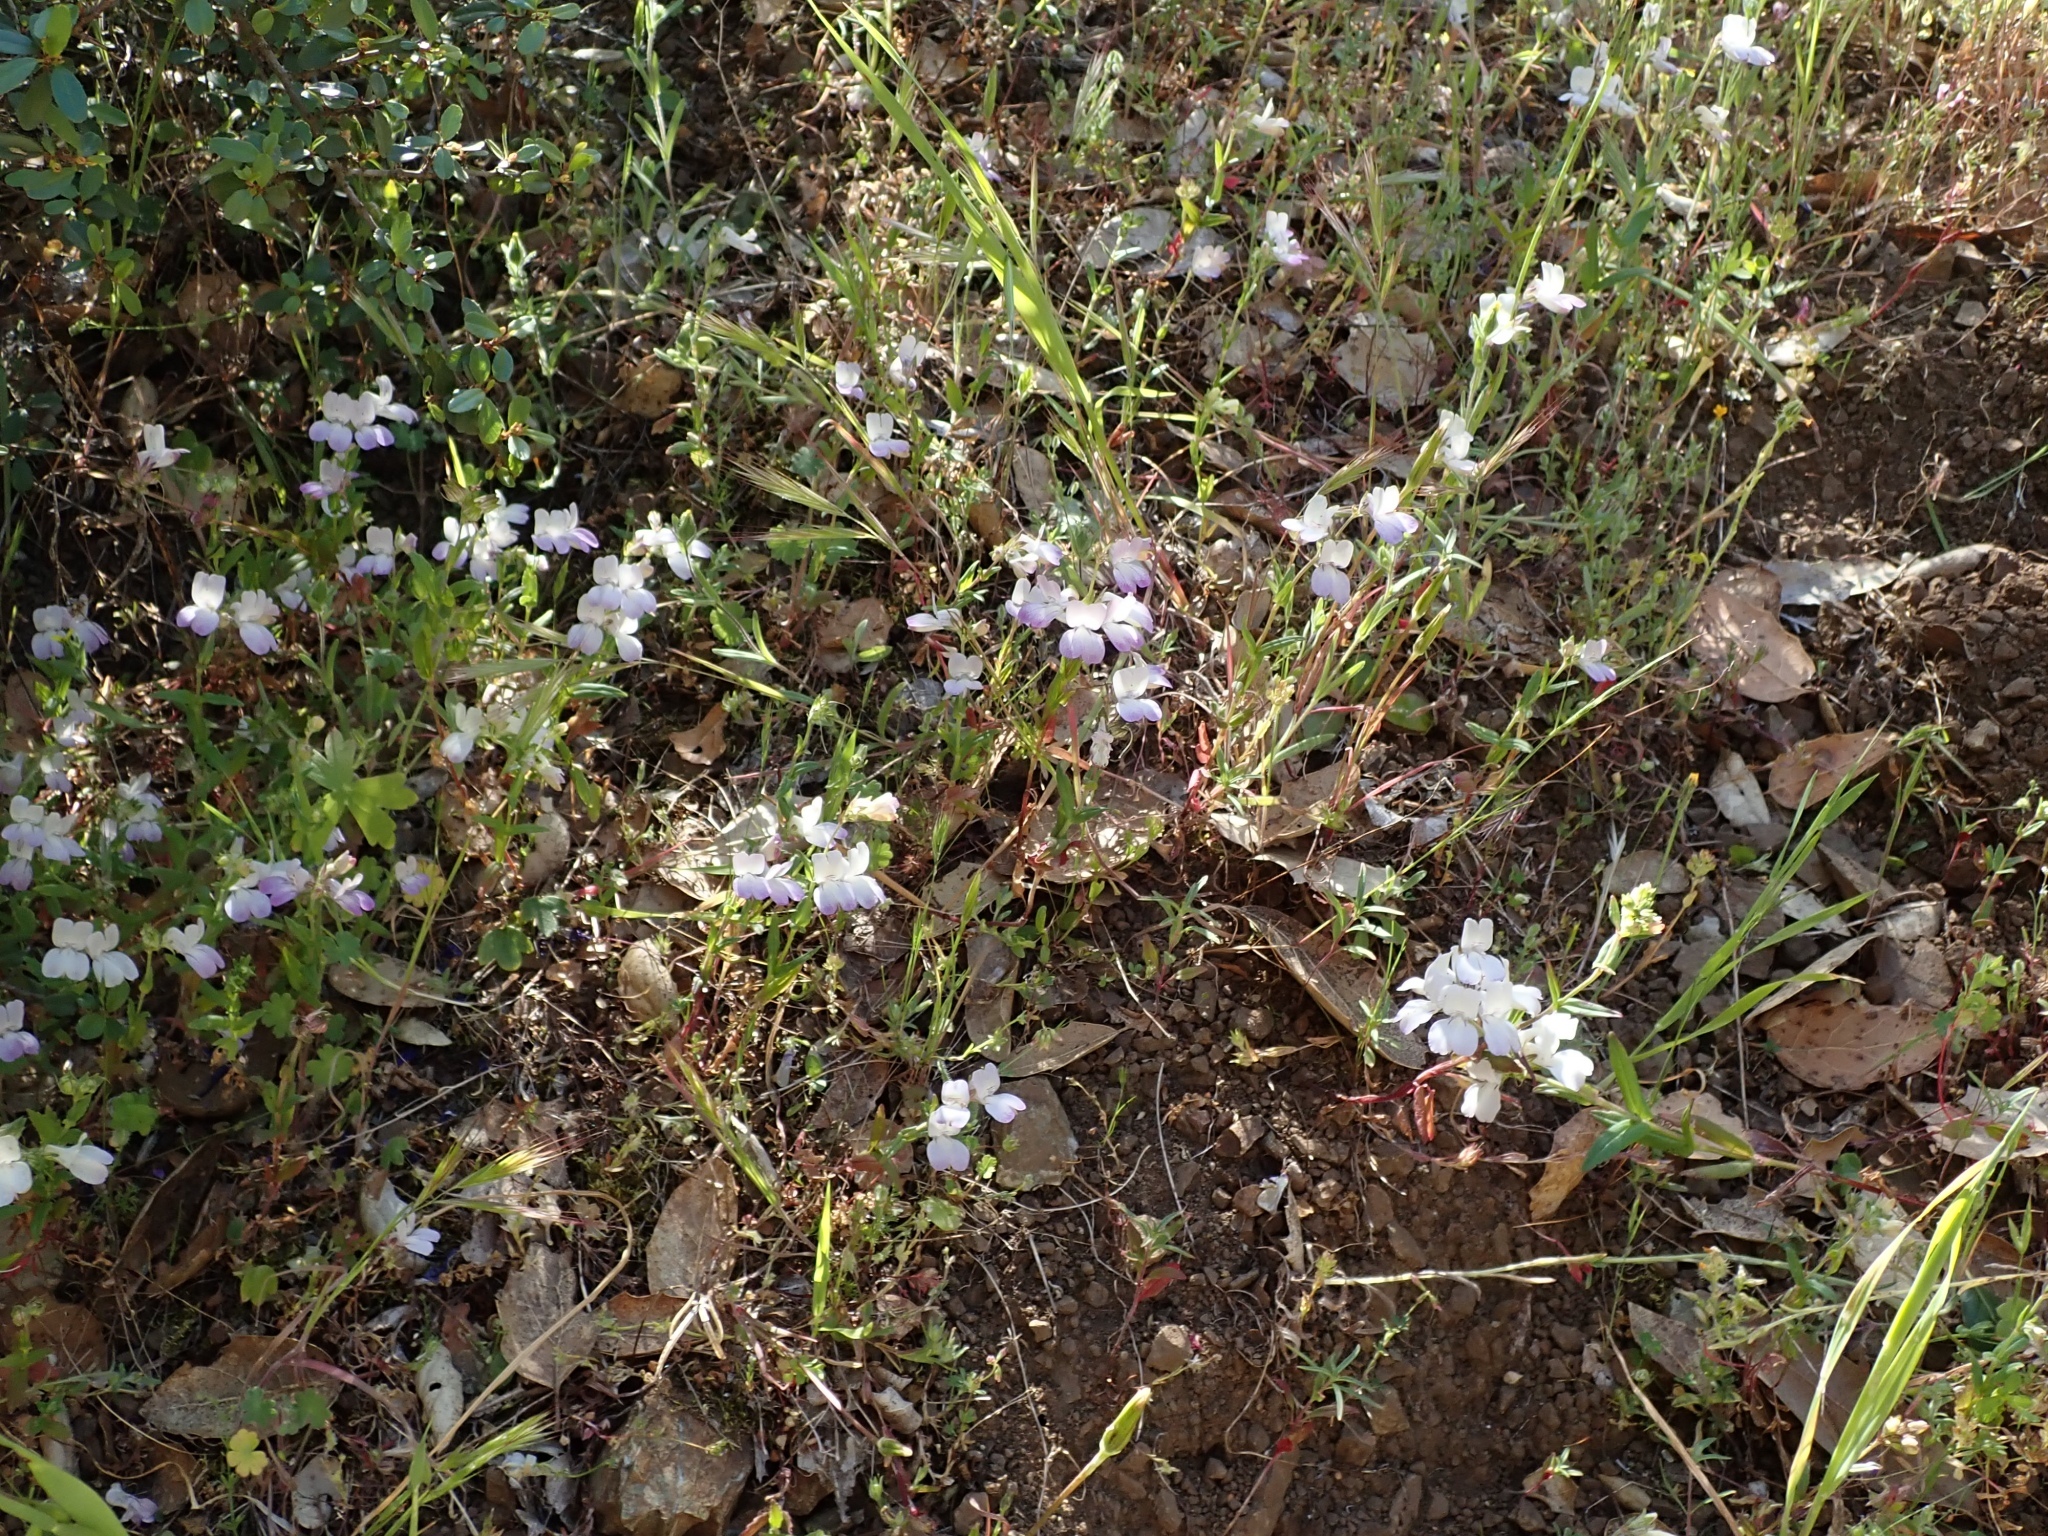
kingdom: Plantae
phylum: Tracheophyta
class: Magnoliopsida
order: Lamiales
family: Plantaginaceae
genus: Collinsia
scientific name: Collinsia heterophylla
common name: Chinese-houses
